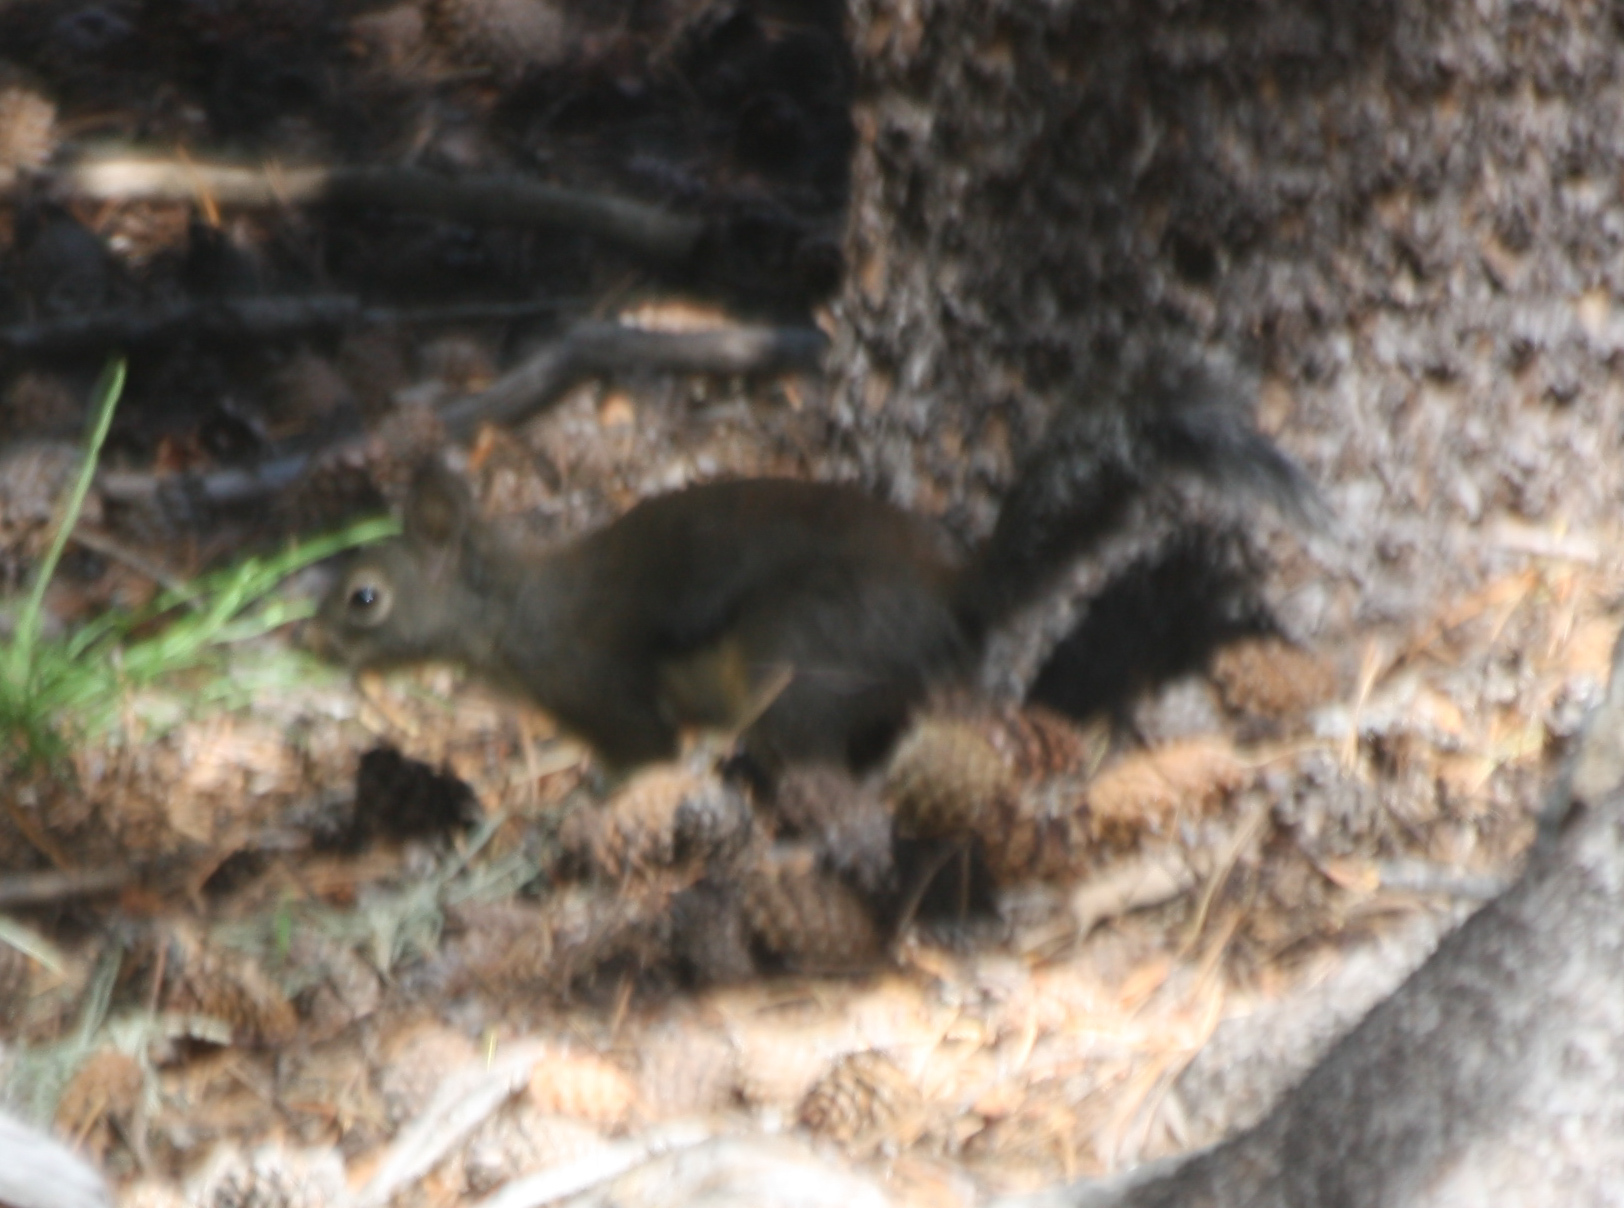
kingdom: Animalia
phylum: Chordata
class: Mammalia
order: Rodentia
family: Sciuridae
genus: Tamiasciurus
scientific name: Tamiasciurus douglasii
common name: Douglas's squirrel
